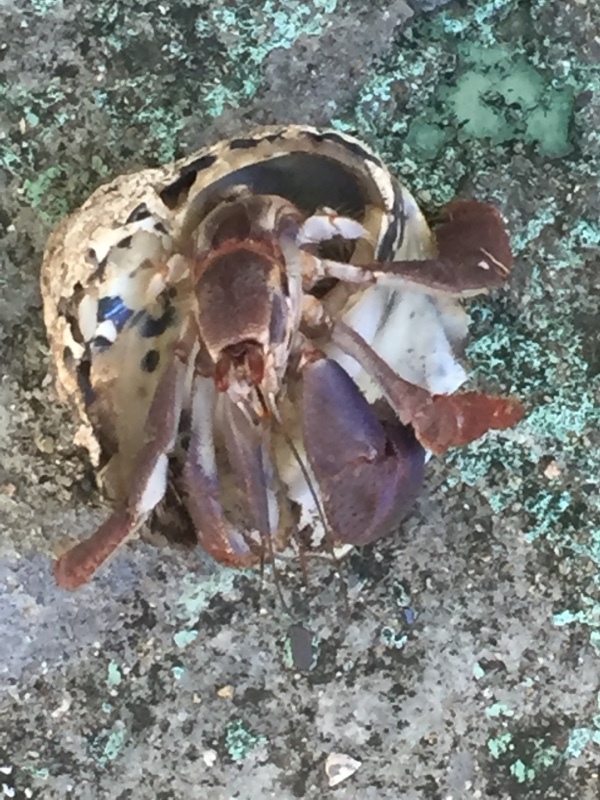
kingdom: Animalia
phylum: Mollusca
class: Gastropoda
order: Trochida
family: Tegulidae
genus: Cittarium
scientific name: Cittarium pica
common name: West indian topshell
